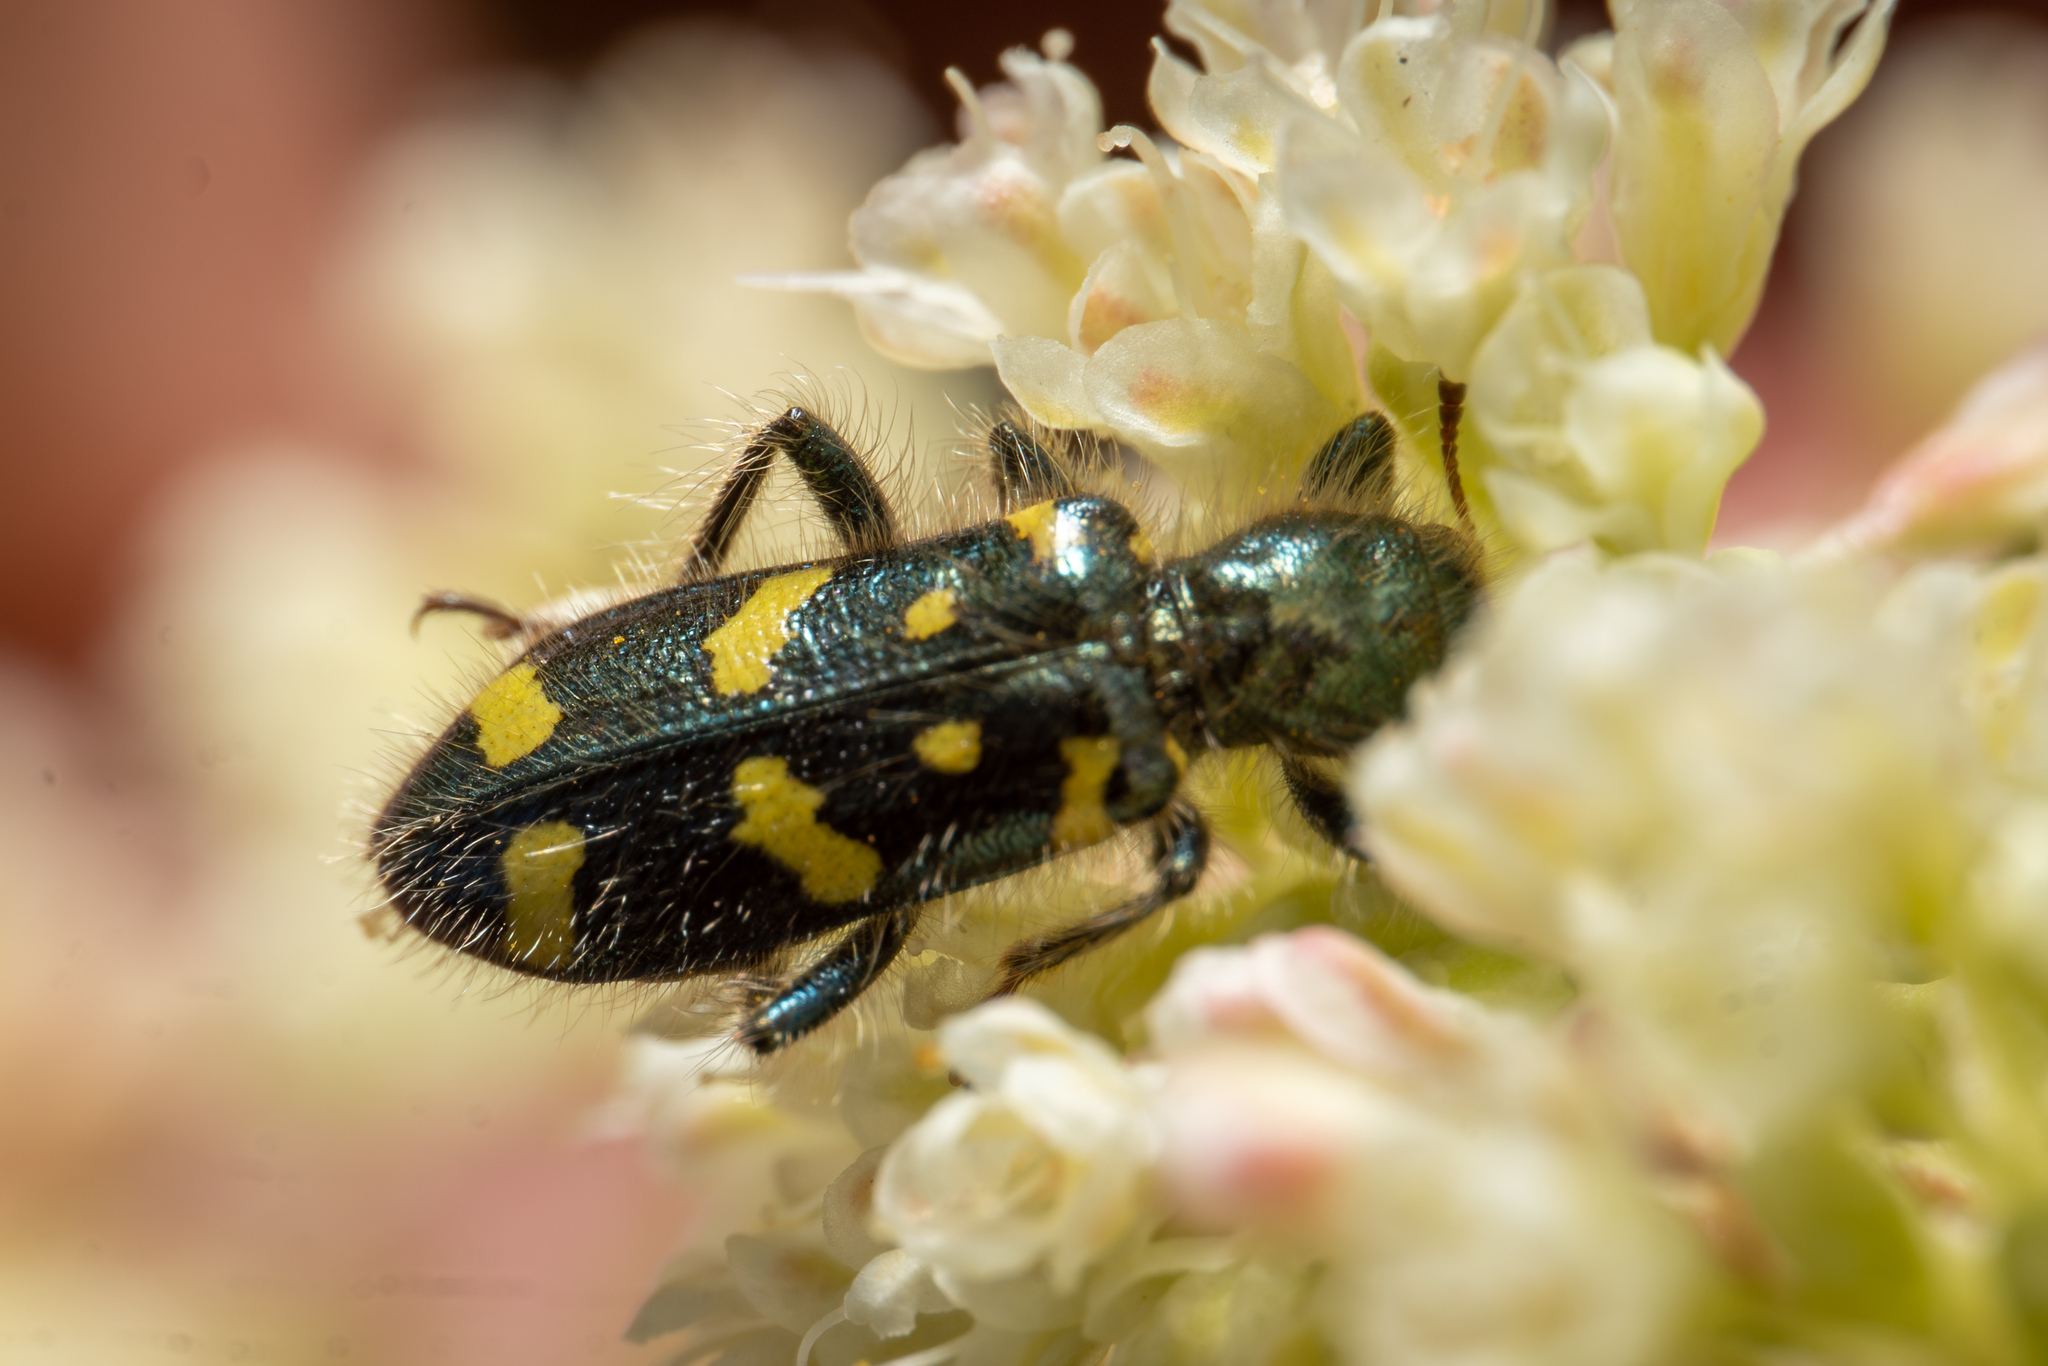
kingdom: Animalia
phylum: Arthropoda
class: Insecta
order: Coleoptera
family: Cleridae
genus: Trichodes
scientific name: Trichodes ornatus
